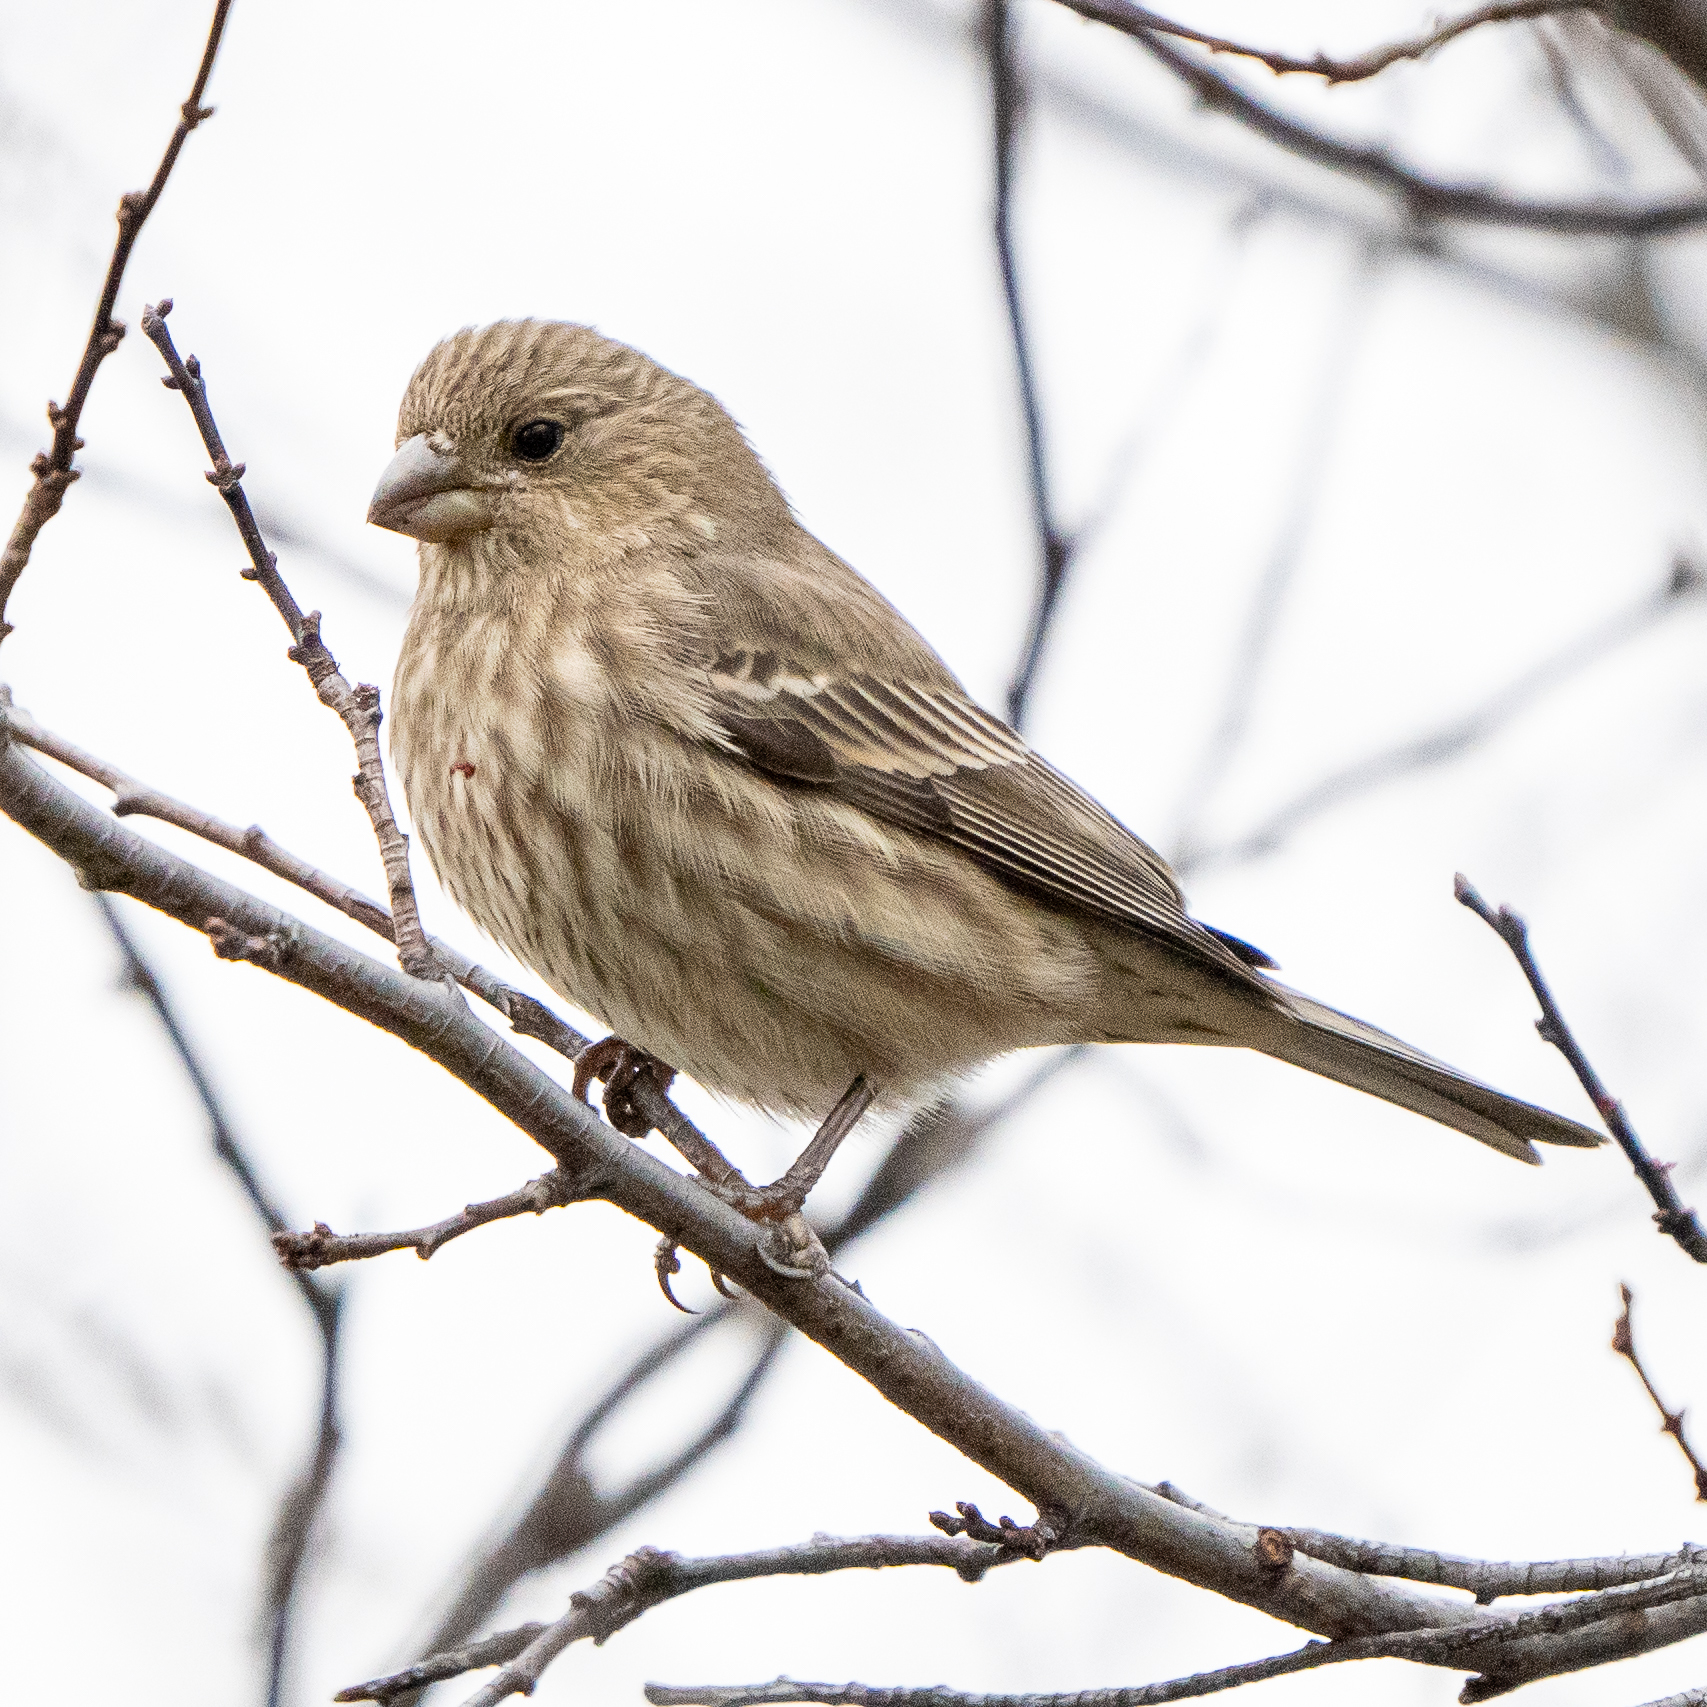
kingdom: Animalia
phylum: Chordata
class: Aves
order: Passeriformes
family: Fringillidae
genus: Haemorhous
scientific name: Haemorhous mexicanus
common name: House finch
